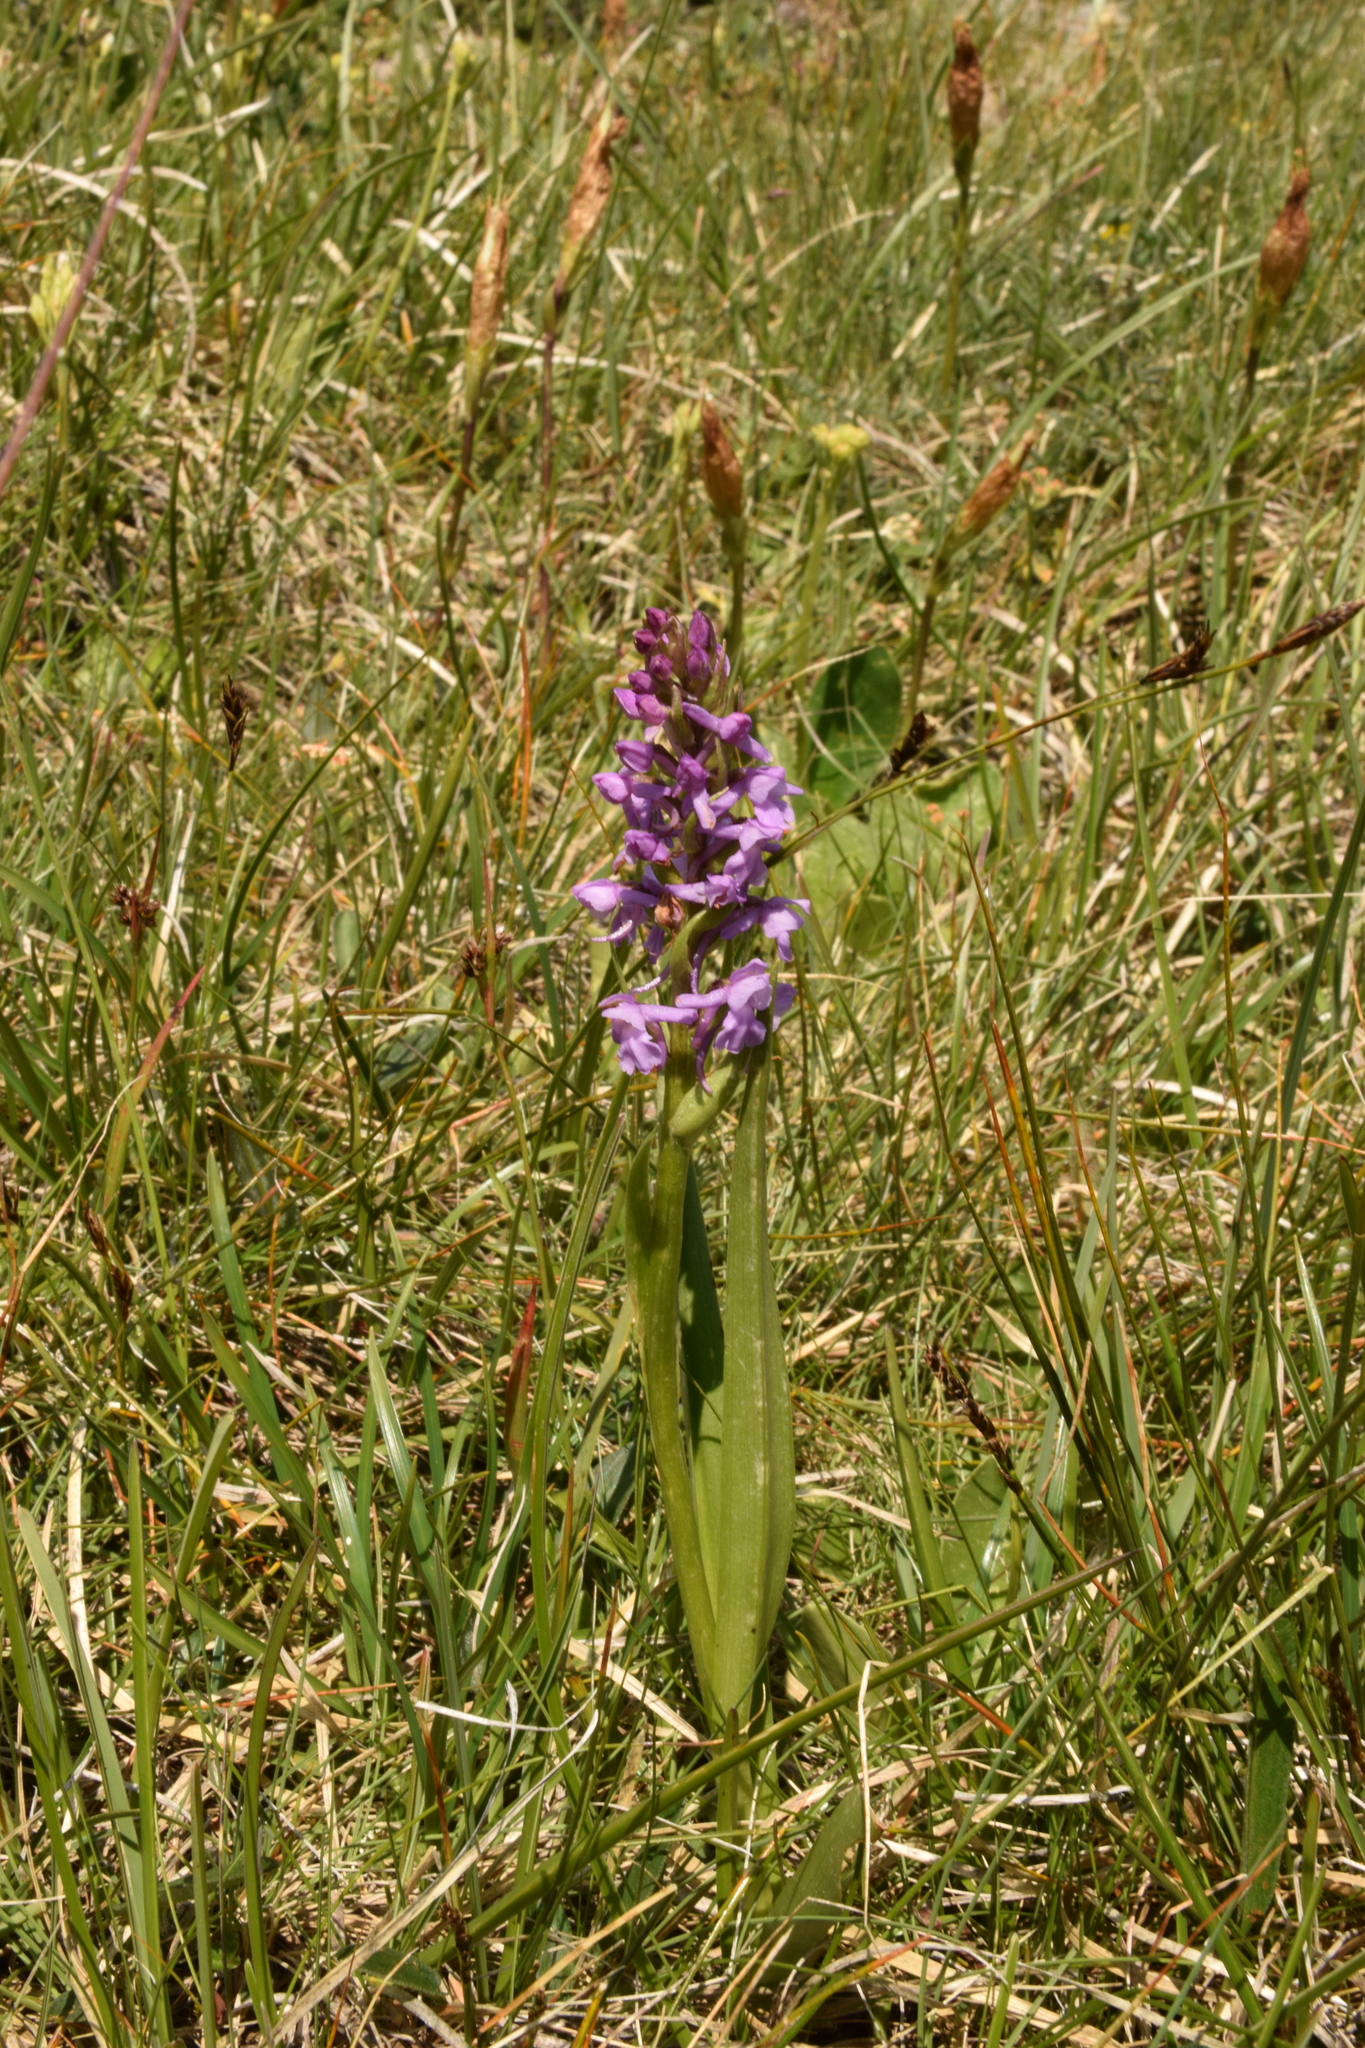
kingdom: Plantae
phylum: Tracheophyta
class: Liliopsida
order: Asparagales
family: Orchidaceae
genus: Gymnadenia
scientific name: Gymnadenia conopsea
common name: Fragrant orchid
